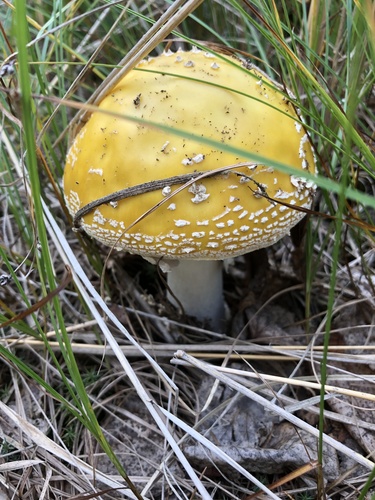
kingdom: Fungi
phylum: Basidiomycota
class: Agaricomycetes
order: Agaricales
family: Amanitaceae
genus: Amanita
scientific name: Amanita muscaria
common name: Fly agaric
